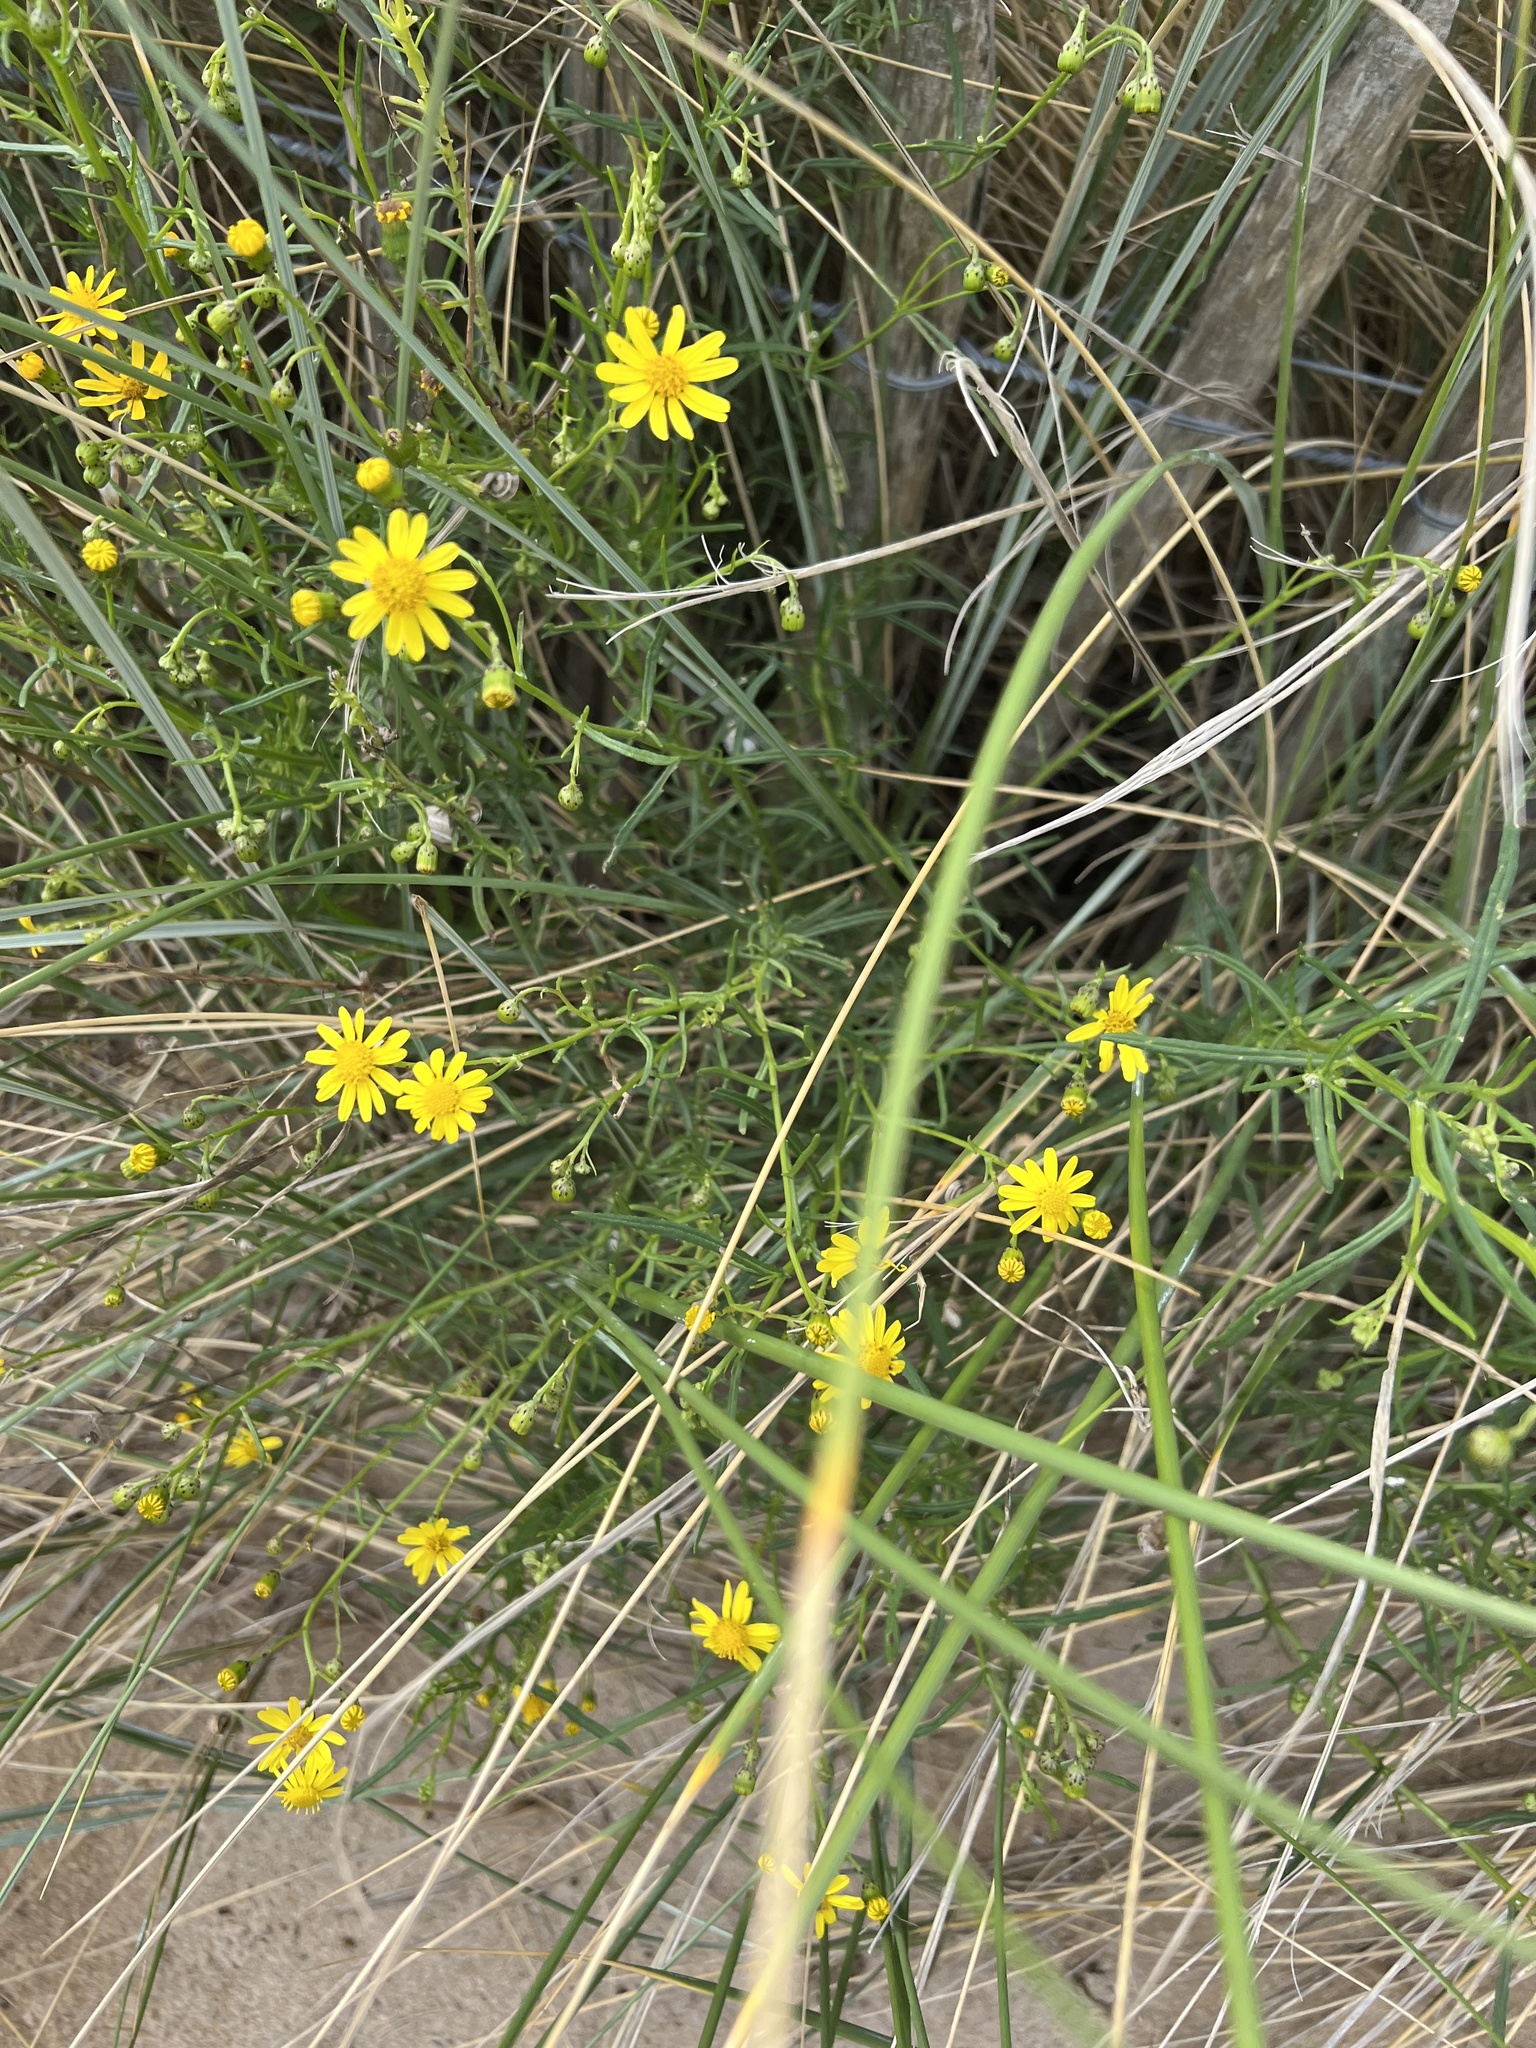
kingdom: Plantae
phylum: Tracheophyta
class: Magnoliopsida
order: Asterales
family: Asteraceae
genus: Senecio
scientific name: Senecio inaequidens
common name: Narrow-leaved ragwort
